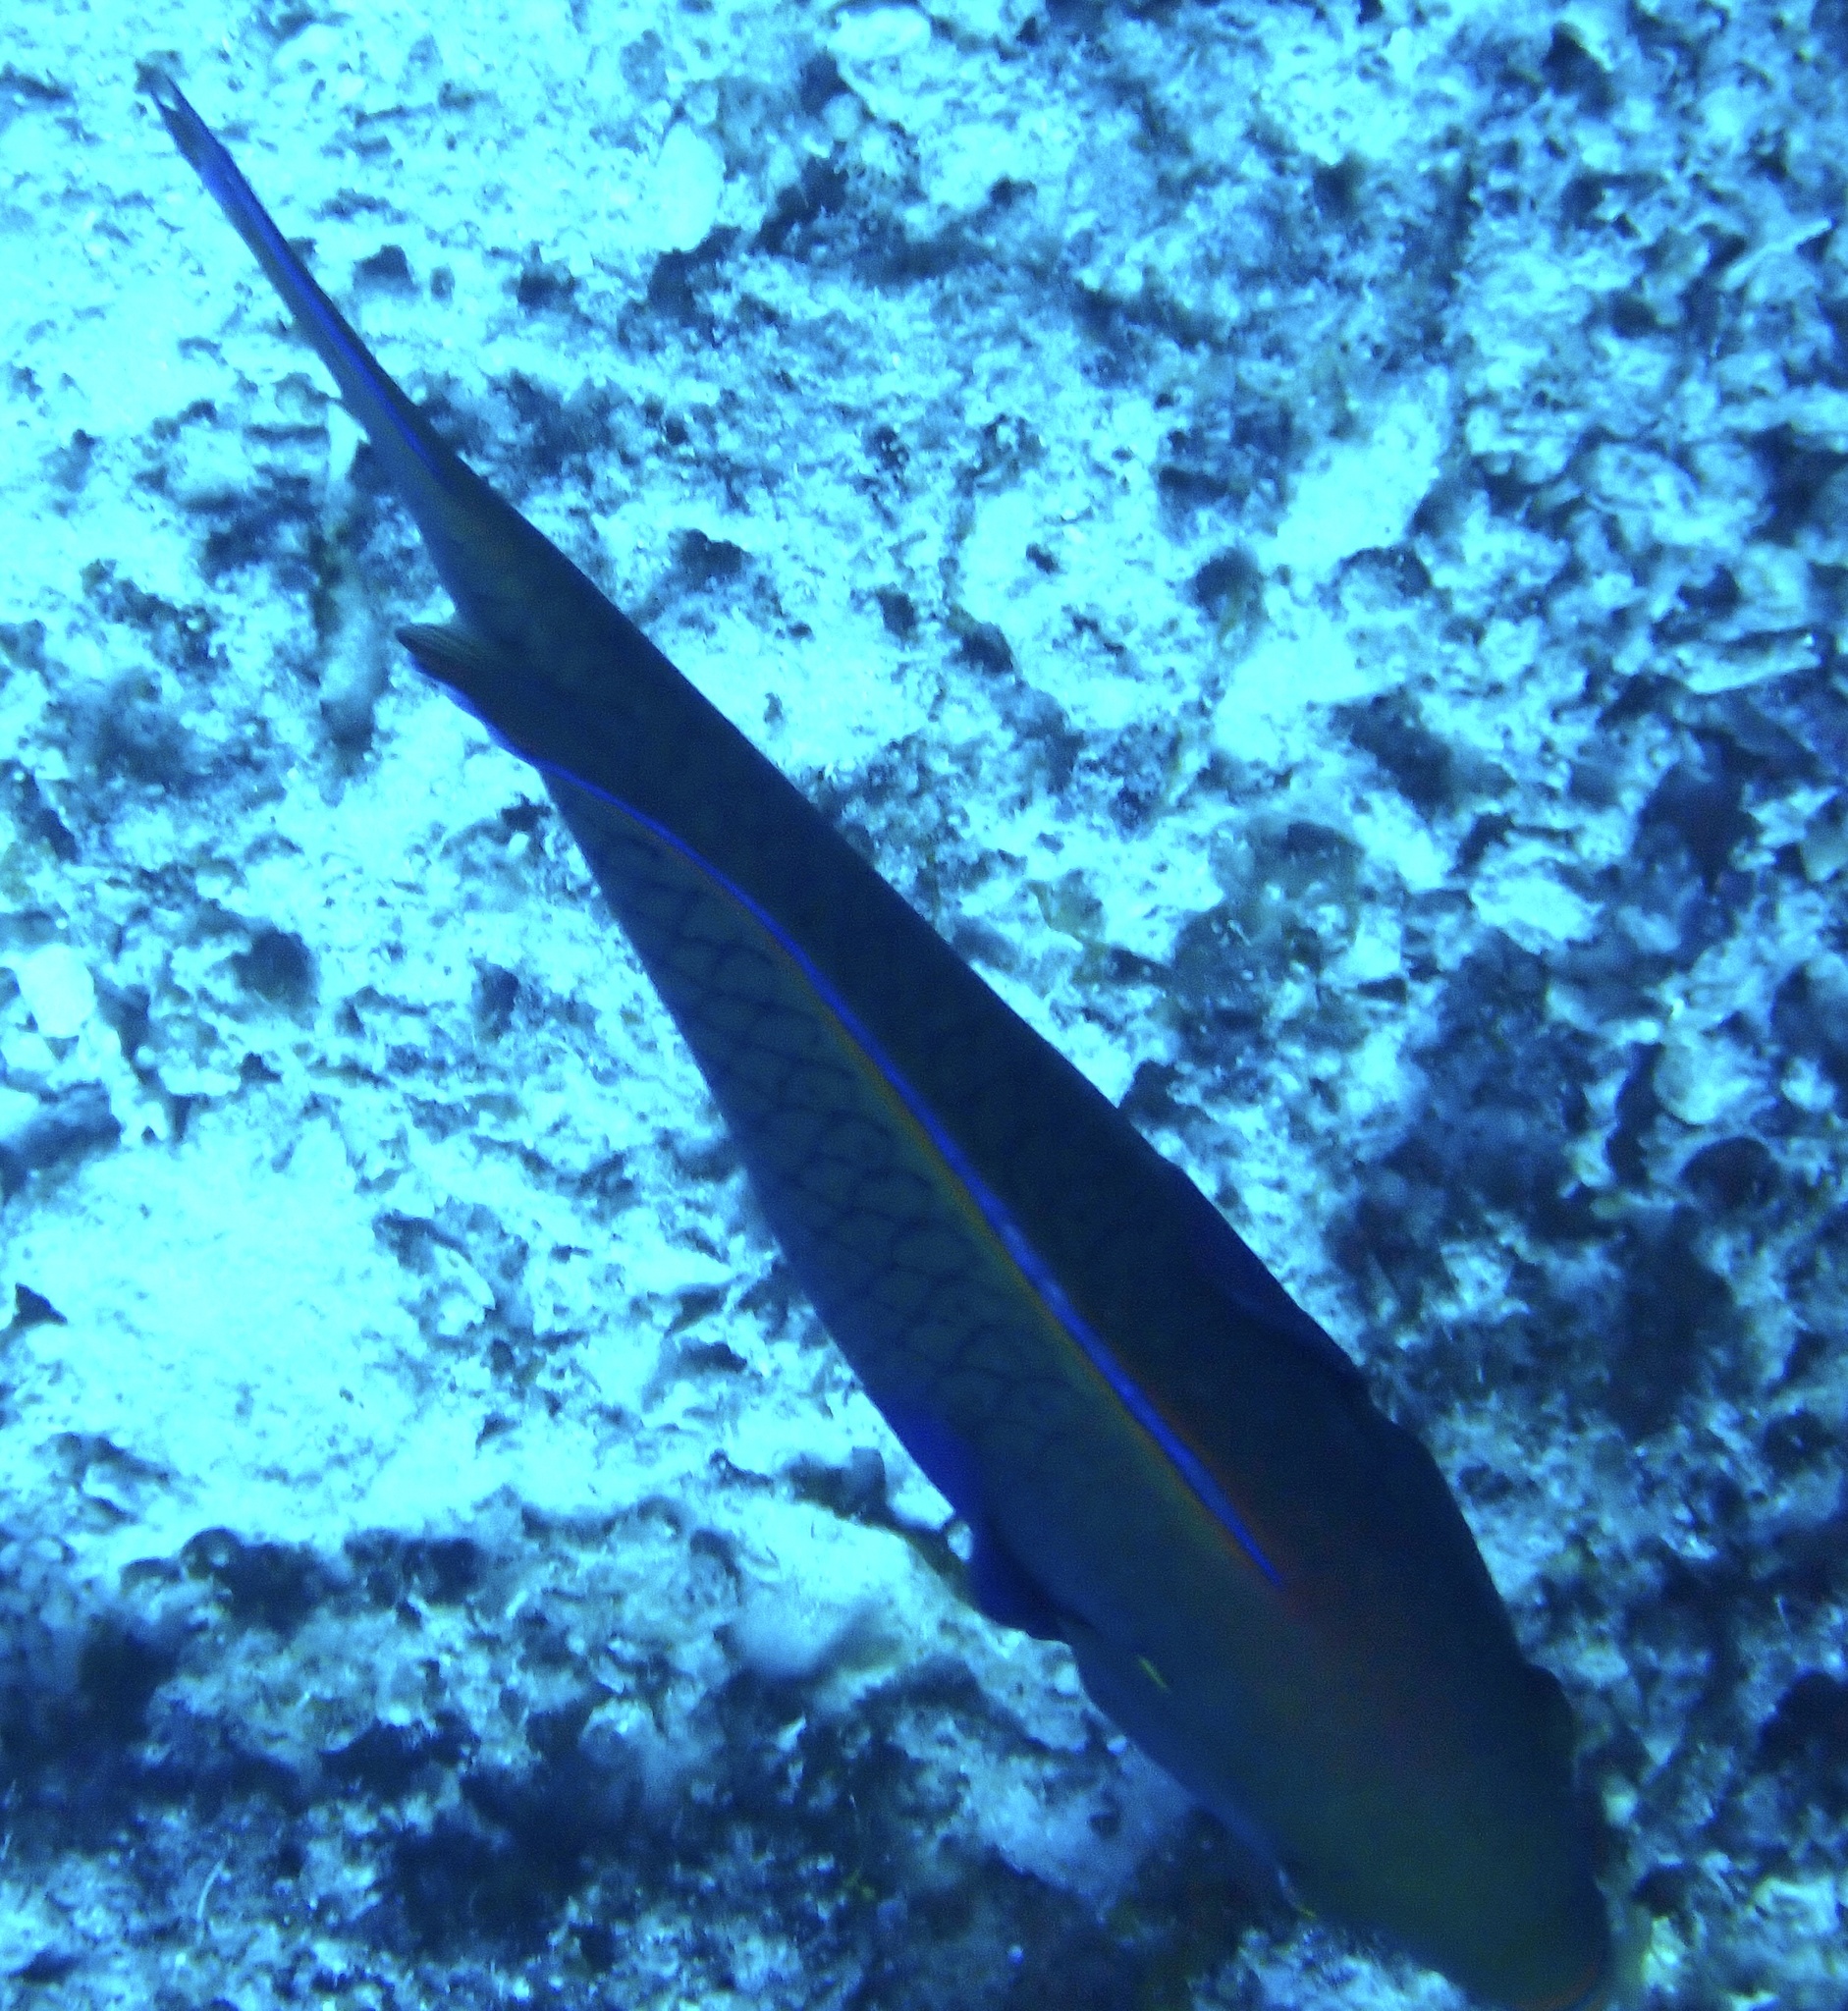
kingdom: Animalia
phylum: Chordata
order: Perciformes
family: Scaridae
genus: Scarus
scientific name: Scarus niger
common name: Dusky parrotfish
